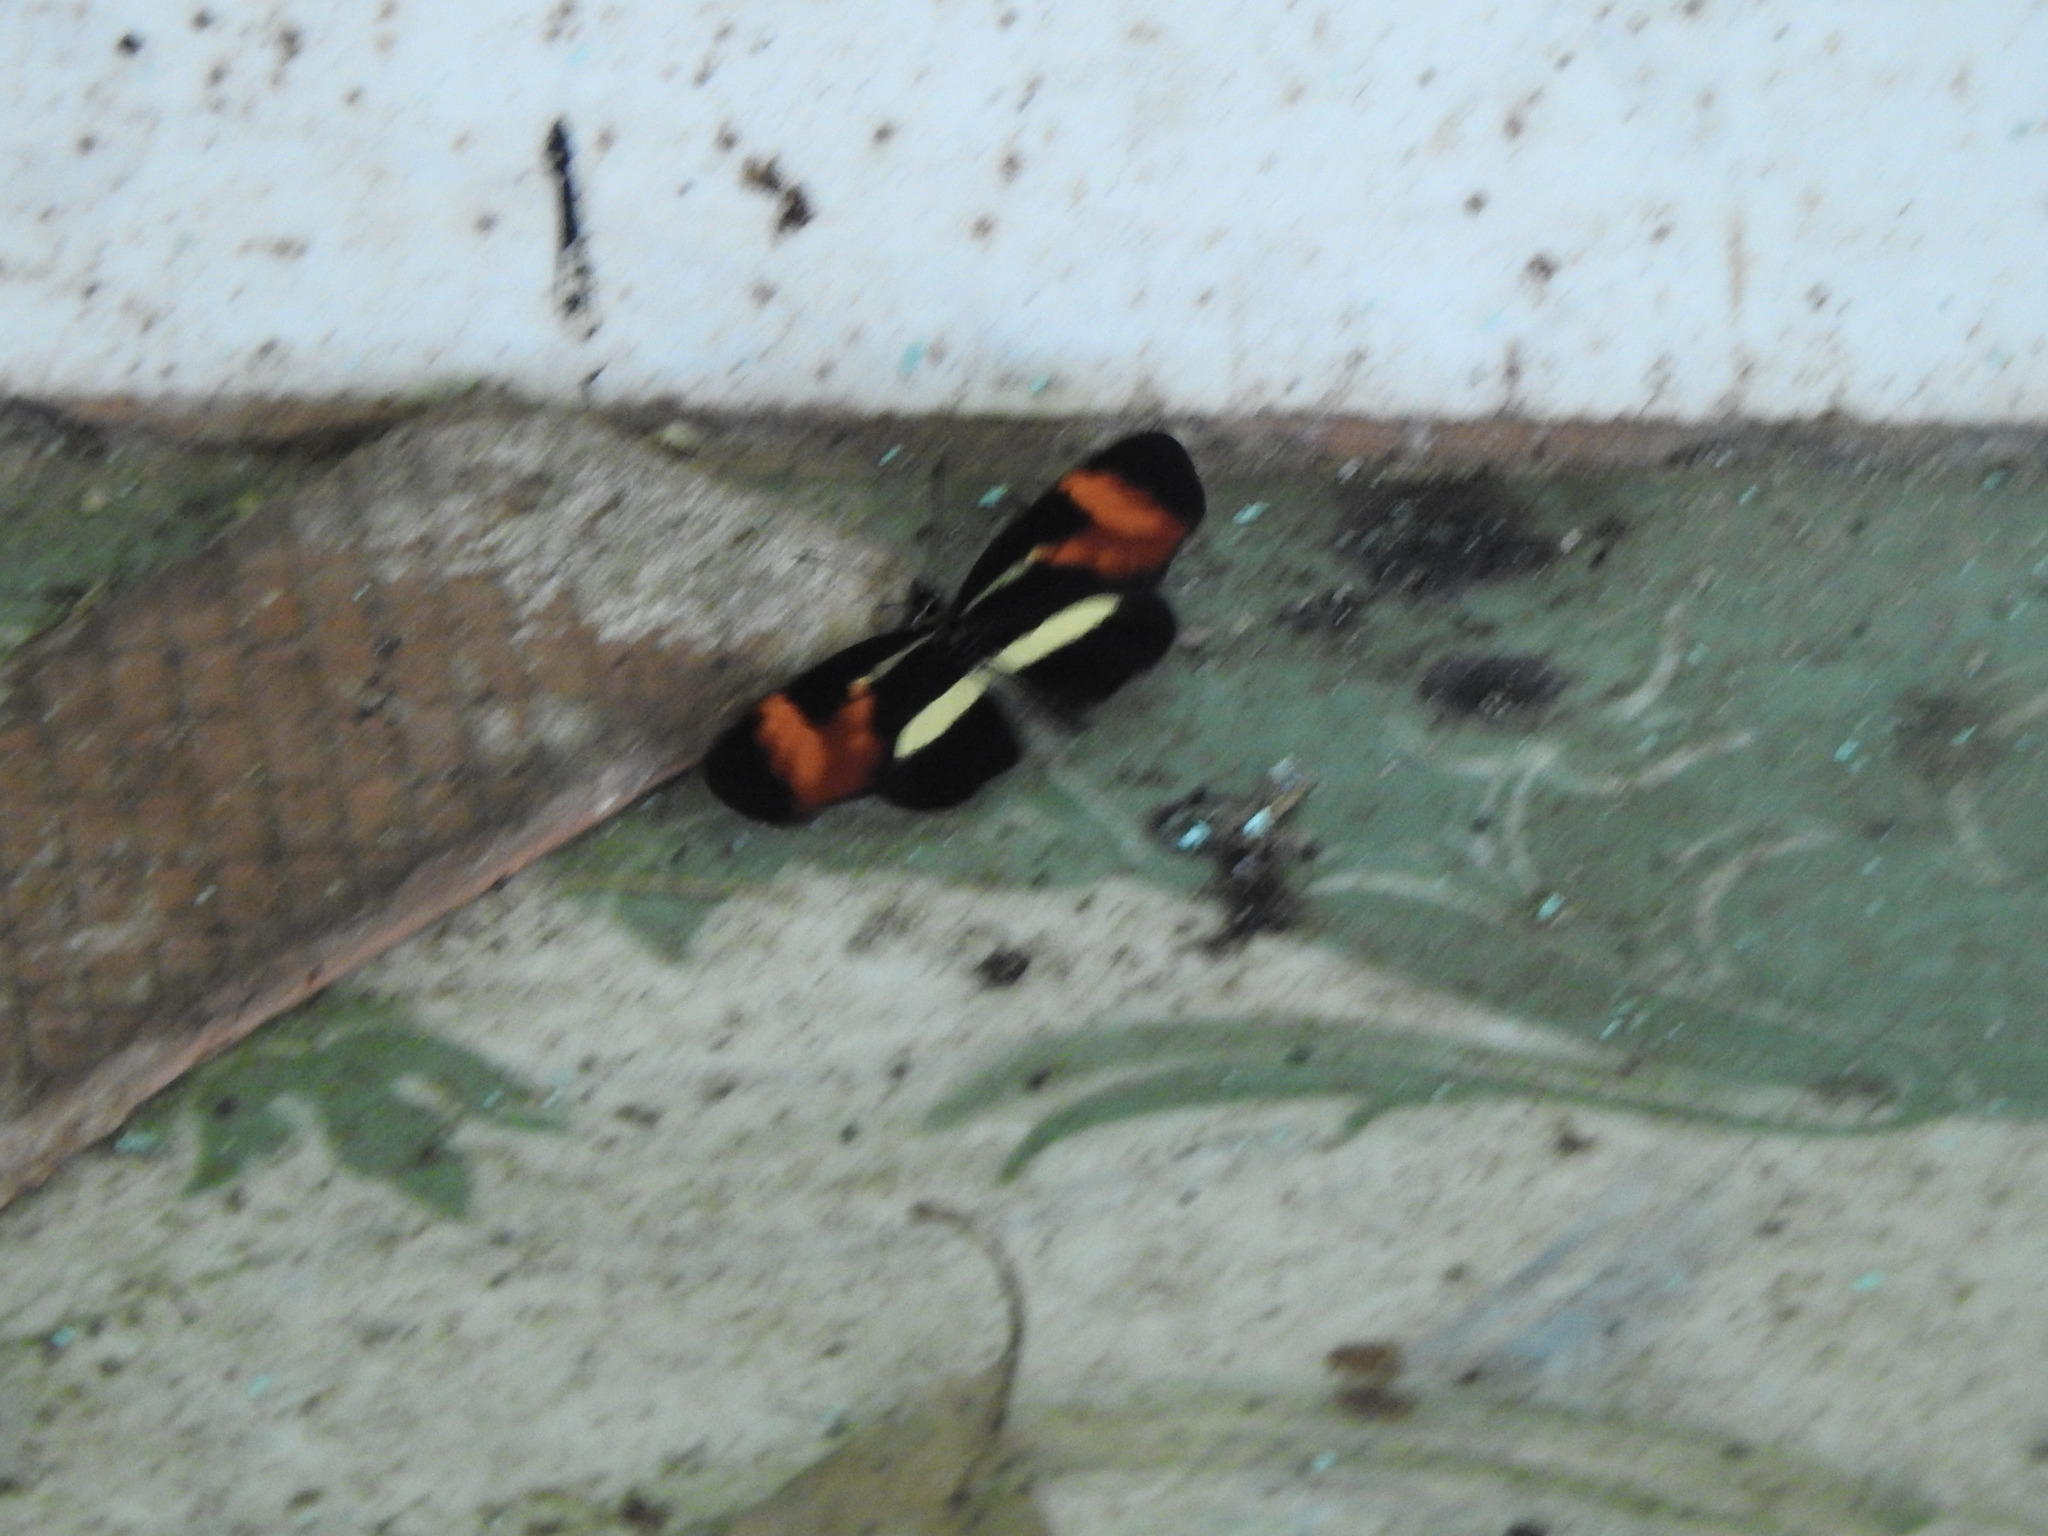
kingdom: Animalia
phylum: Arthropoda
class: Insecta
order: Lepidoptera
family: Nymphalidae
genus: Eresia
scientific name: Eresia lansdorfi
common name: Lansdorf's crescent
